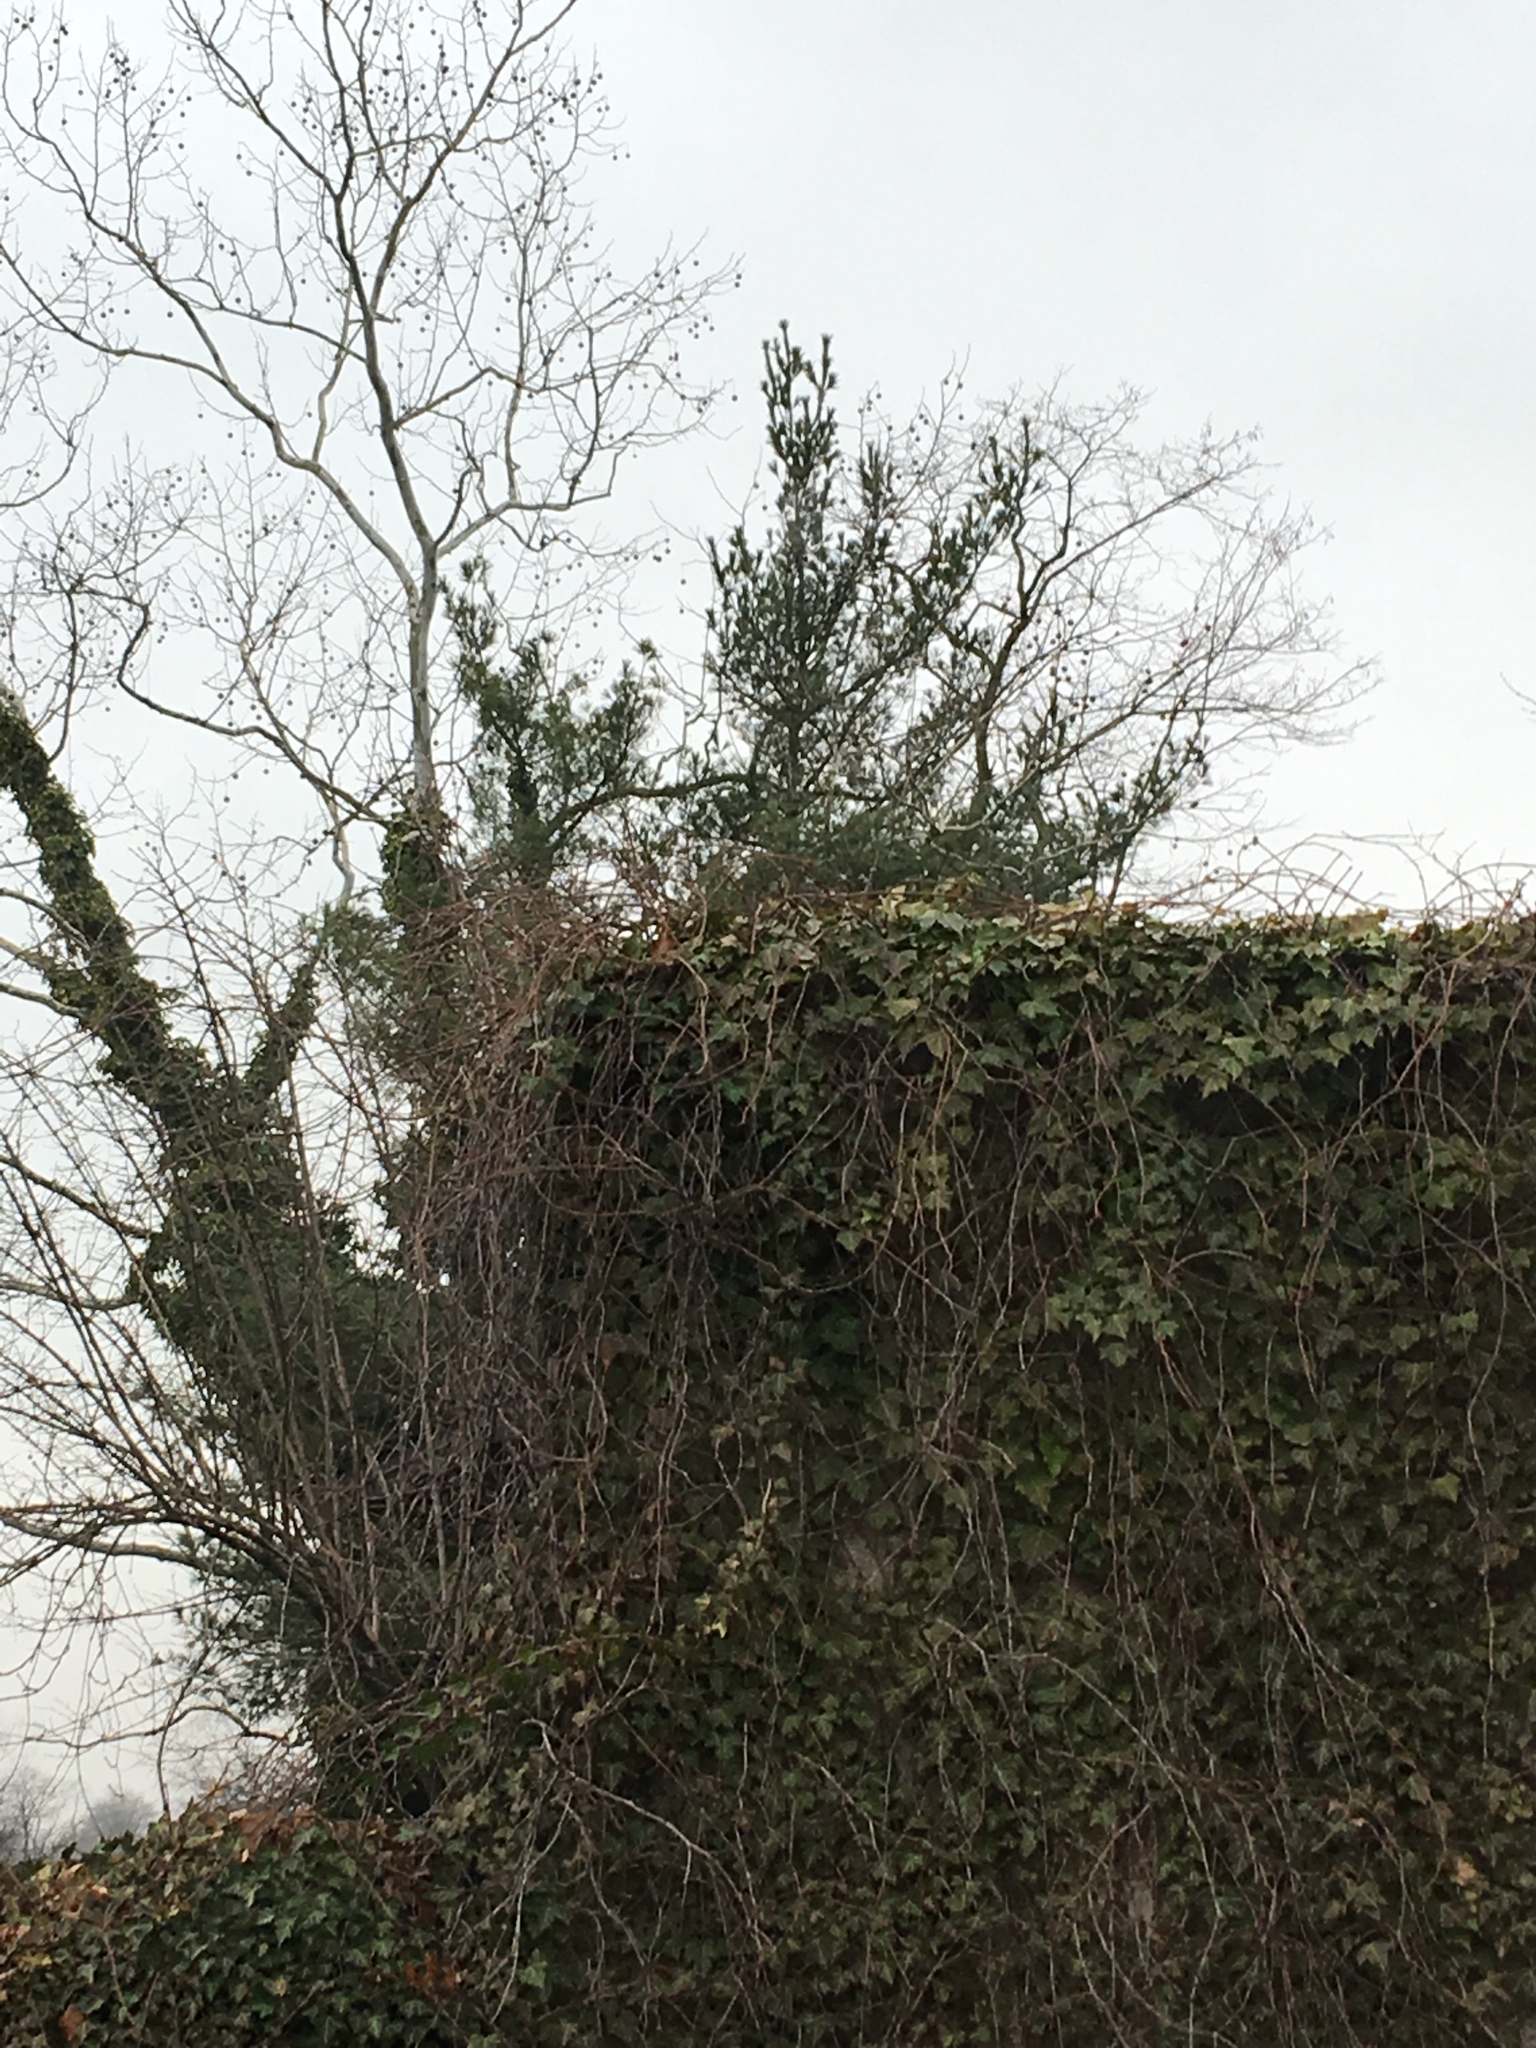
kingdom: Plantae
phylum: Tracheophyta
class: Magnoliopsida
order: Apiales
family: Araliaceae
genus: Hedera
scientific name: Hedera helix
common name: Ivy
